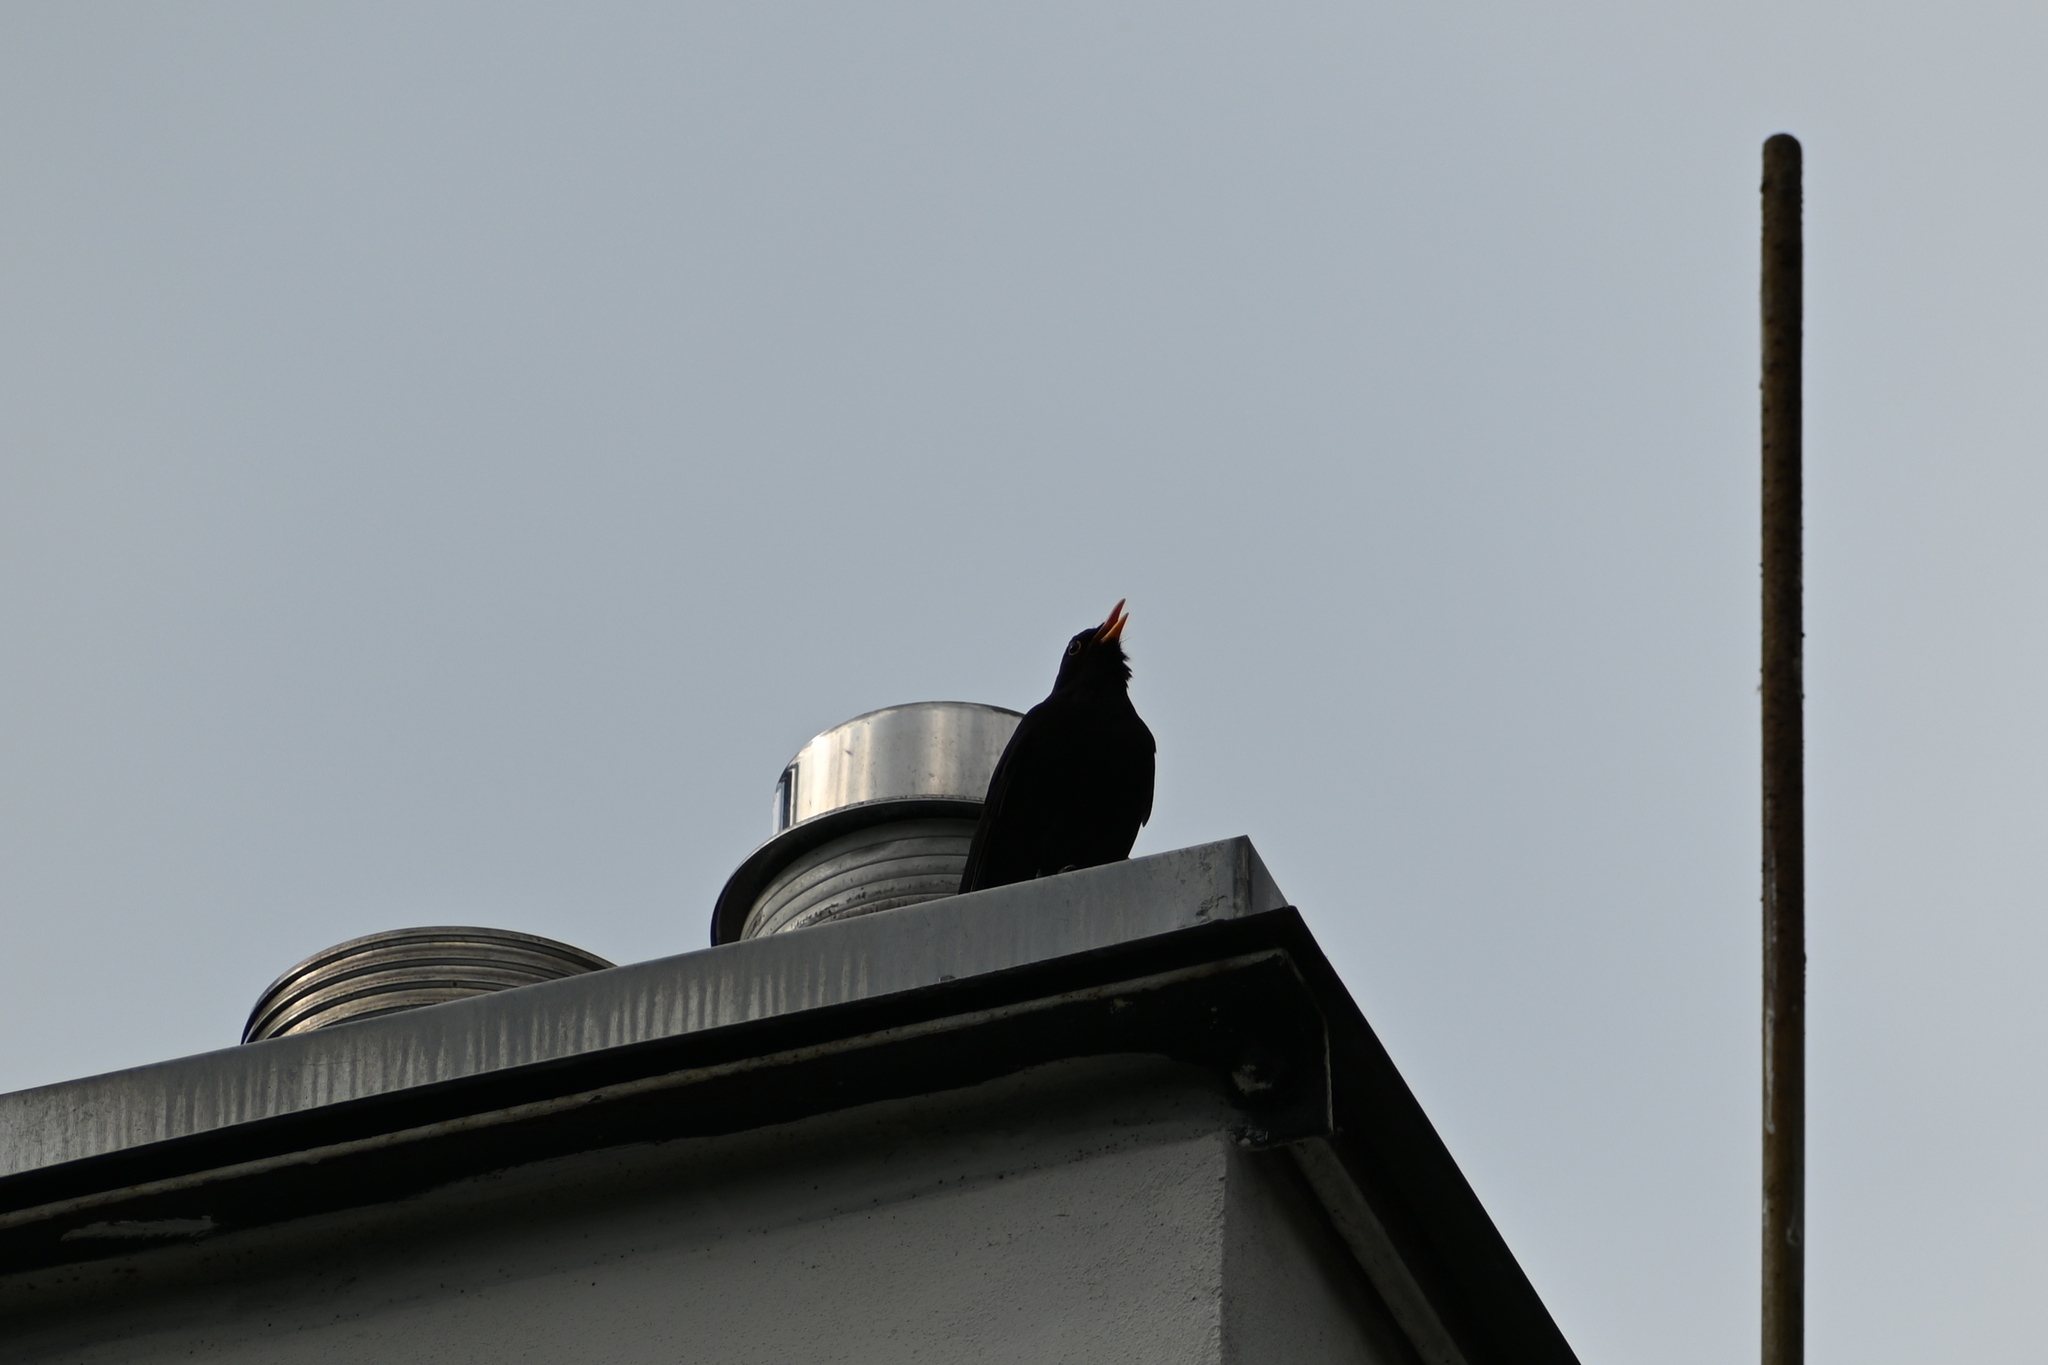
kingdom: Animalia
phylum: Chordata
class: Aves
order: Passeriformes
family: Turdidae
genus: Turdus
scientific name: Turdus merula
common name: Common blackbird
